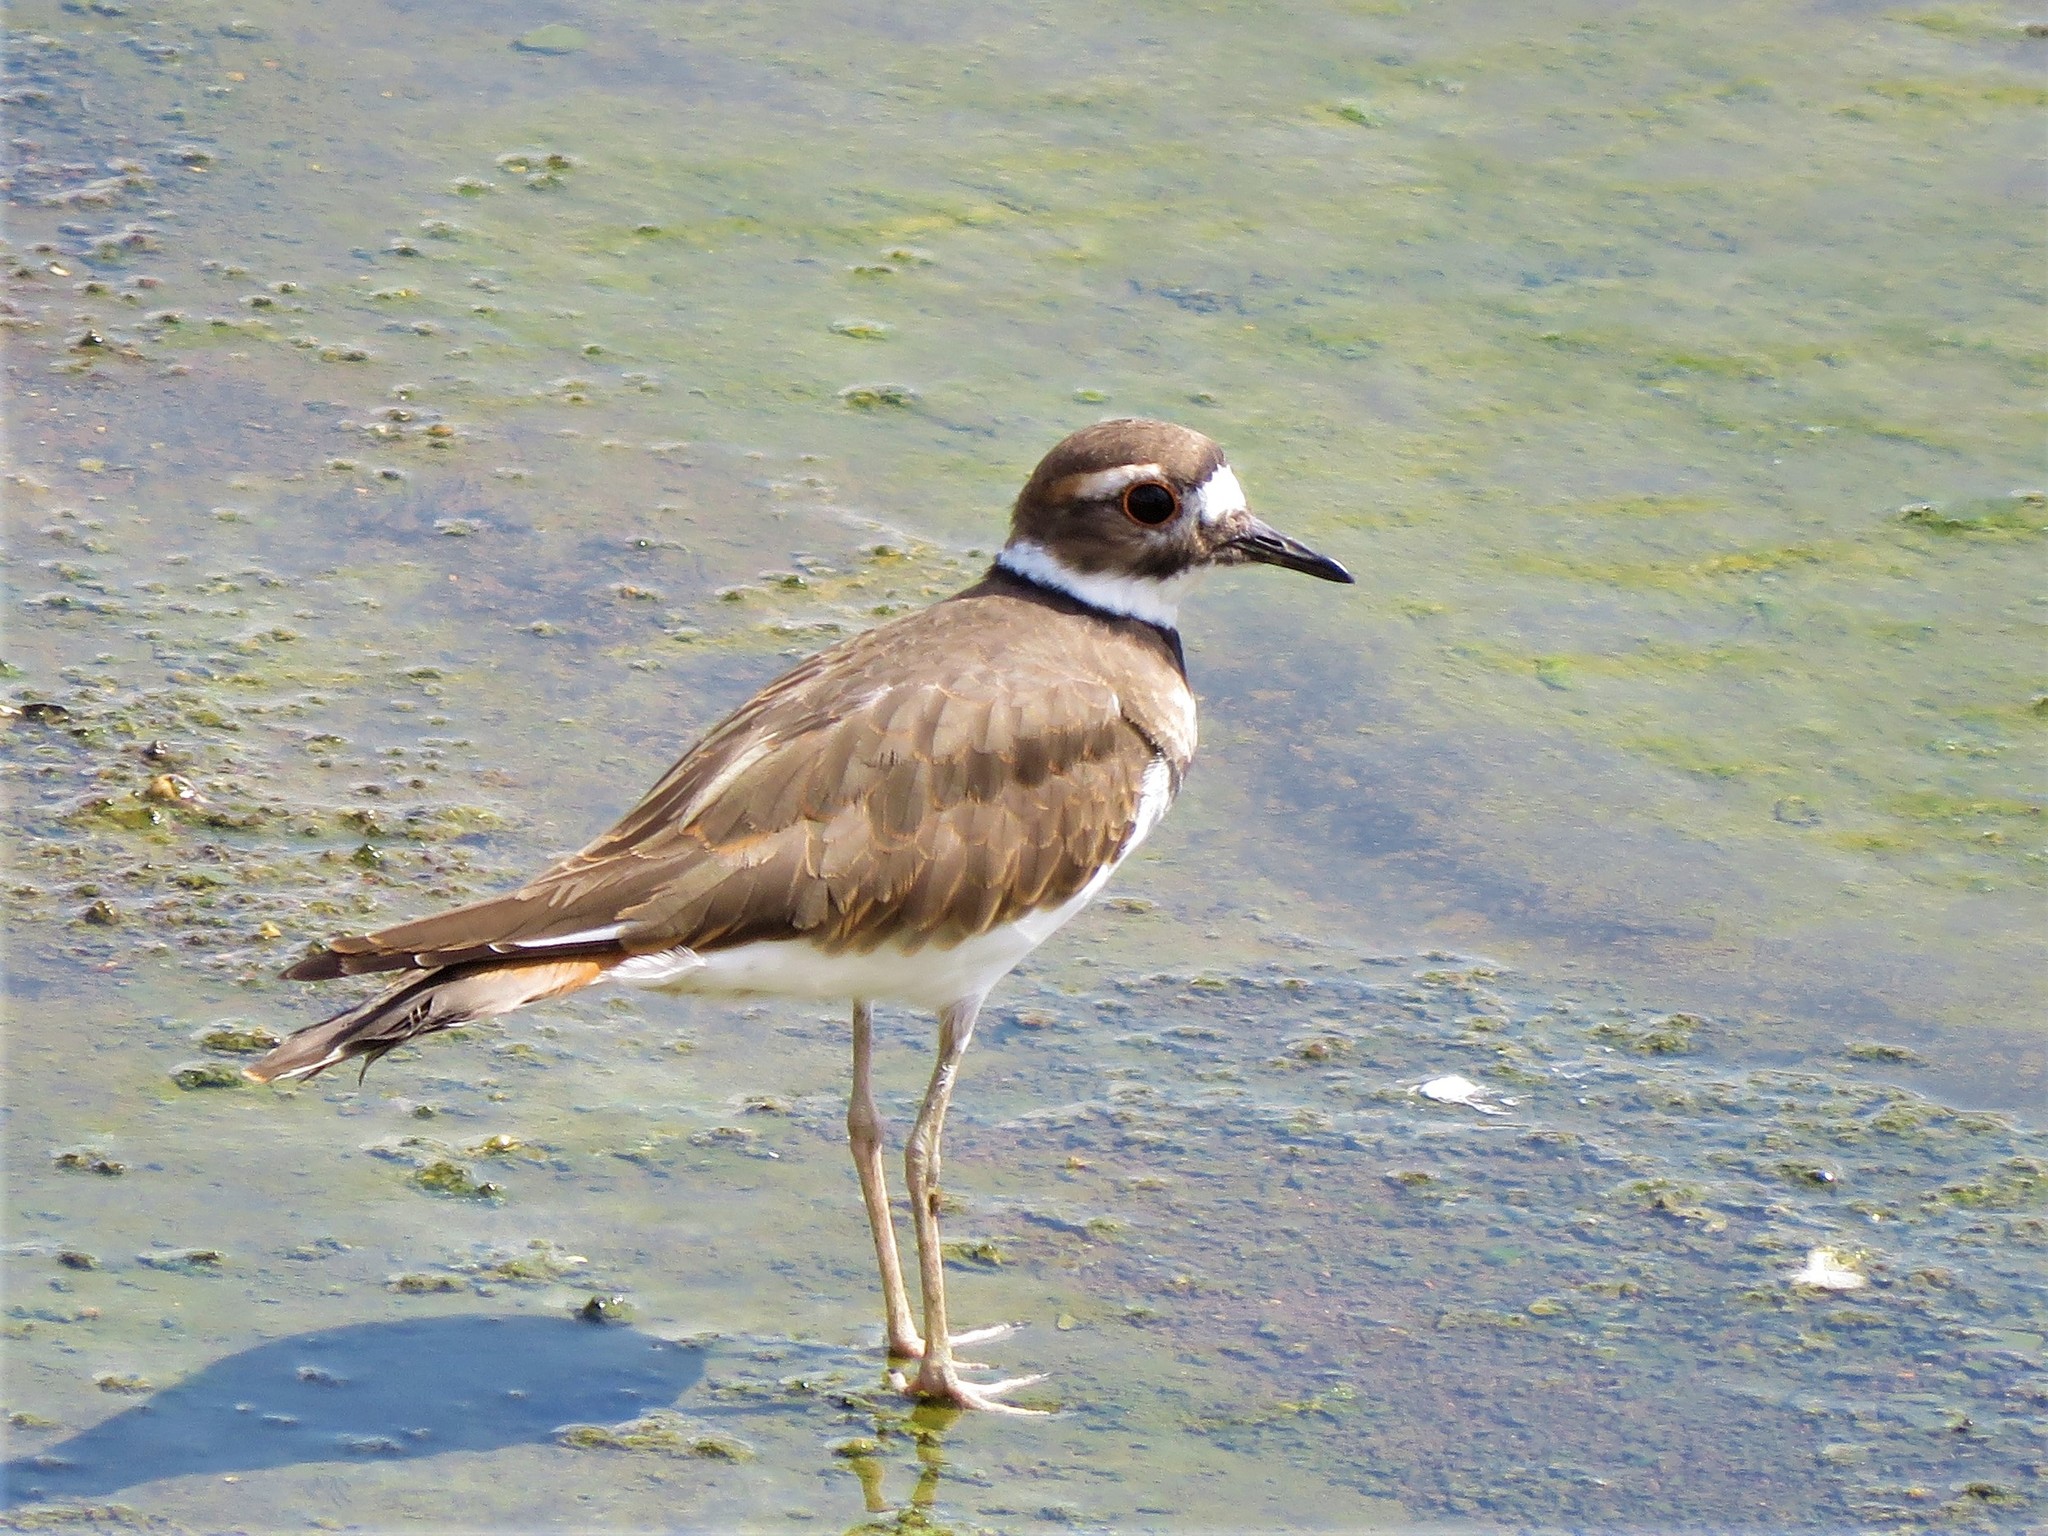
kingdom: Animalia
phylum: Chordata
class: Aves
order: Charadriiformes
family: Charadriidae
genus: Charadrius
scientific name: Charadrius vociferus
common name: Killdeer
